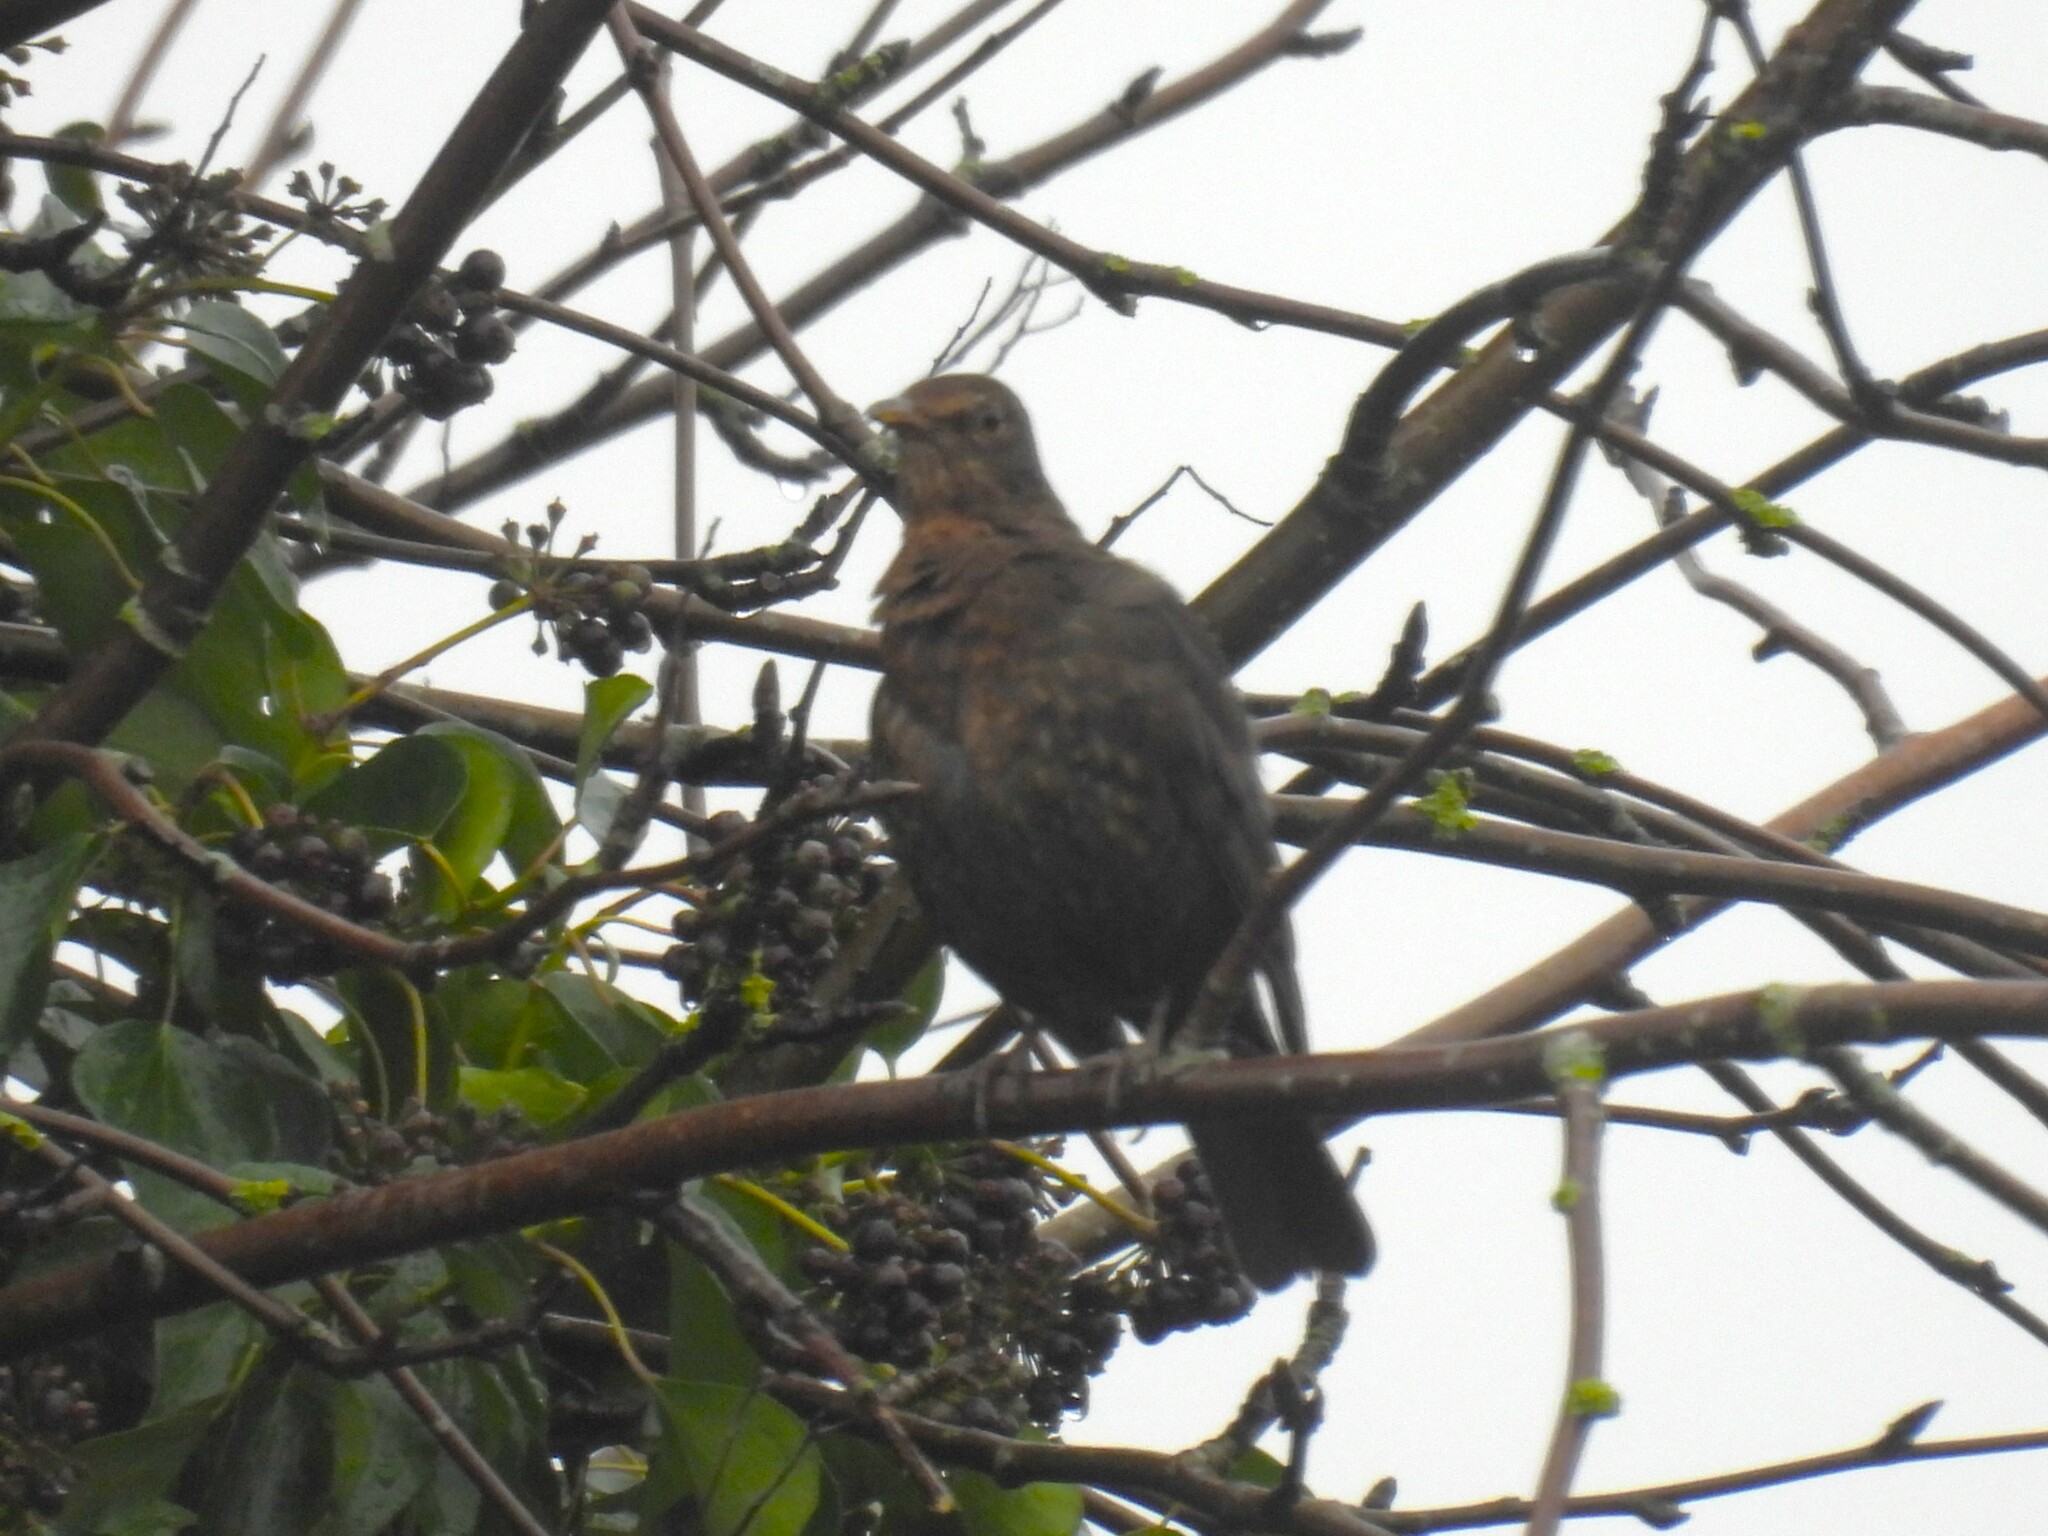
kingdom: Animalia
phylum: Chordata
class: Aves
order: Passeriformes
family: Turdidae
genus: Turdus
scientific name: Turdus merula
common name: Common blackbird
